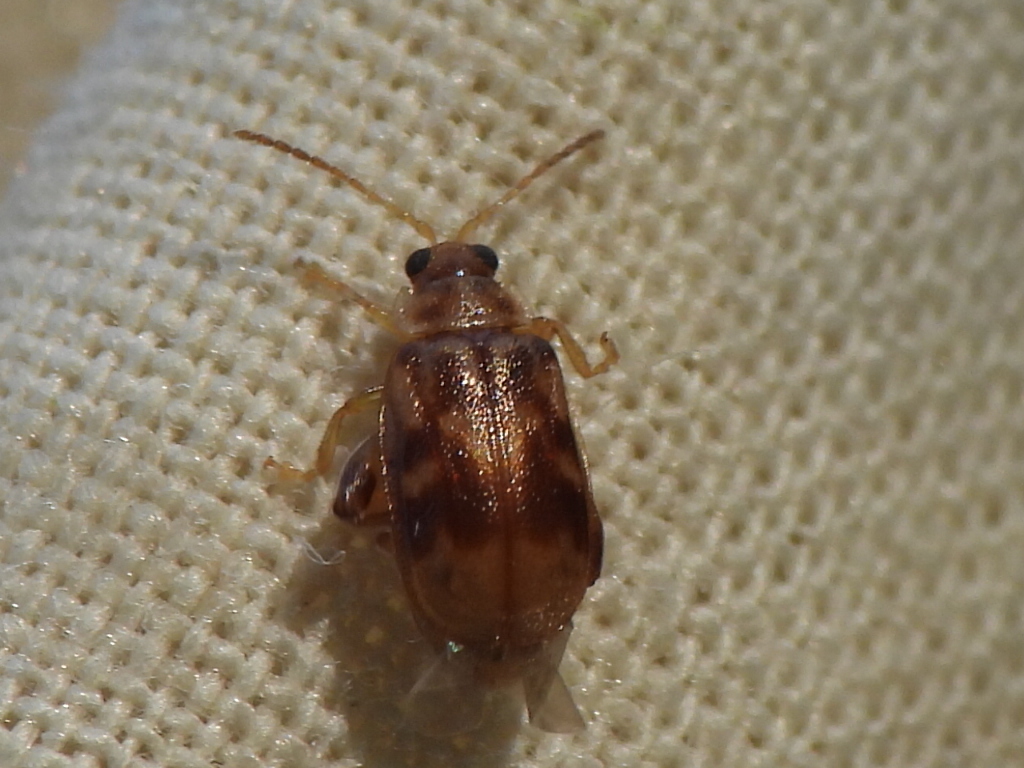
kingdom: Animalia
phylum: Arthropoda
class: Insecta
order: Coleoptera
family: Chrysomelidae
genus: Capraita
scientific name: Capraita sexmaculata
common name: Charlie brown flea beetle
